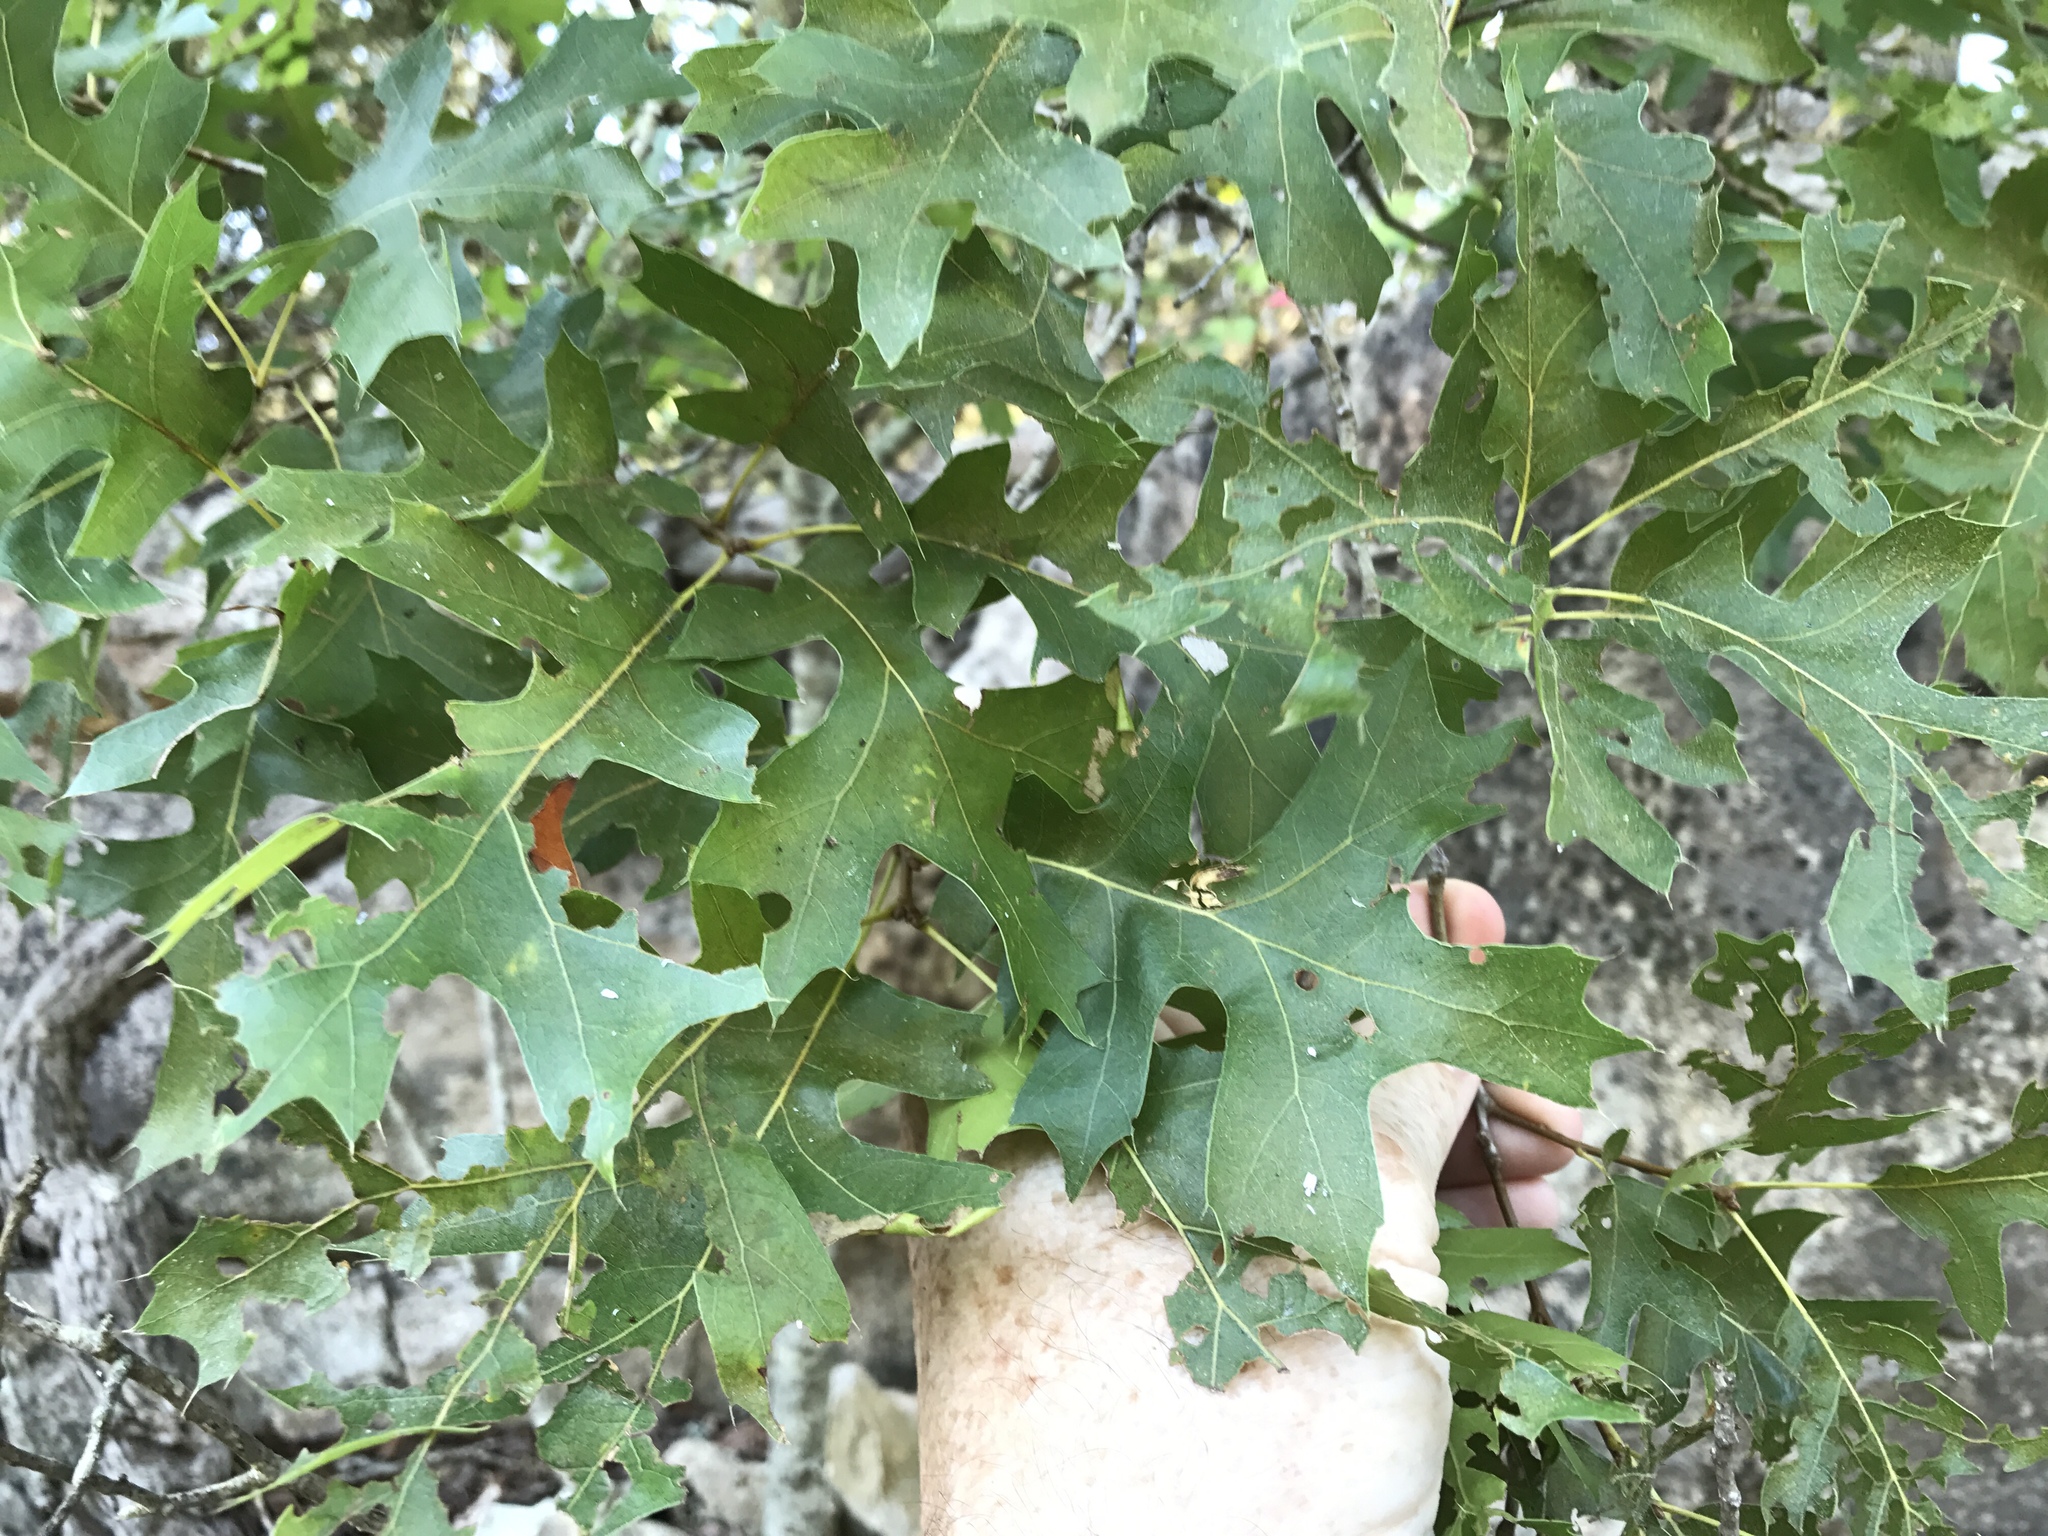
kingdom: Plantae
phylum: Tracheophyta
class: Magnoliopsida
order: Fagales
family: Fagaceae
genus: Quercus
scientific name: Quercus buckleyi
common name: Buckley oak
